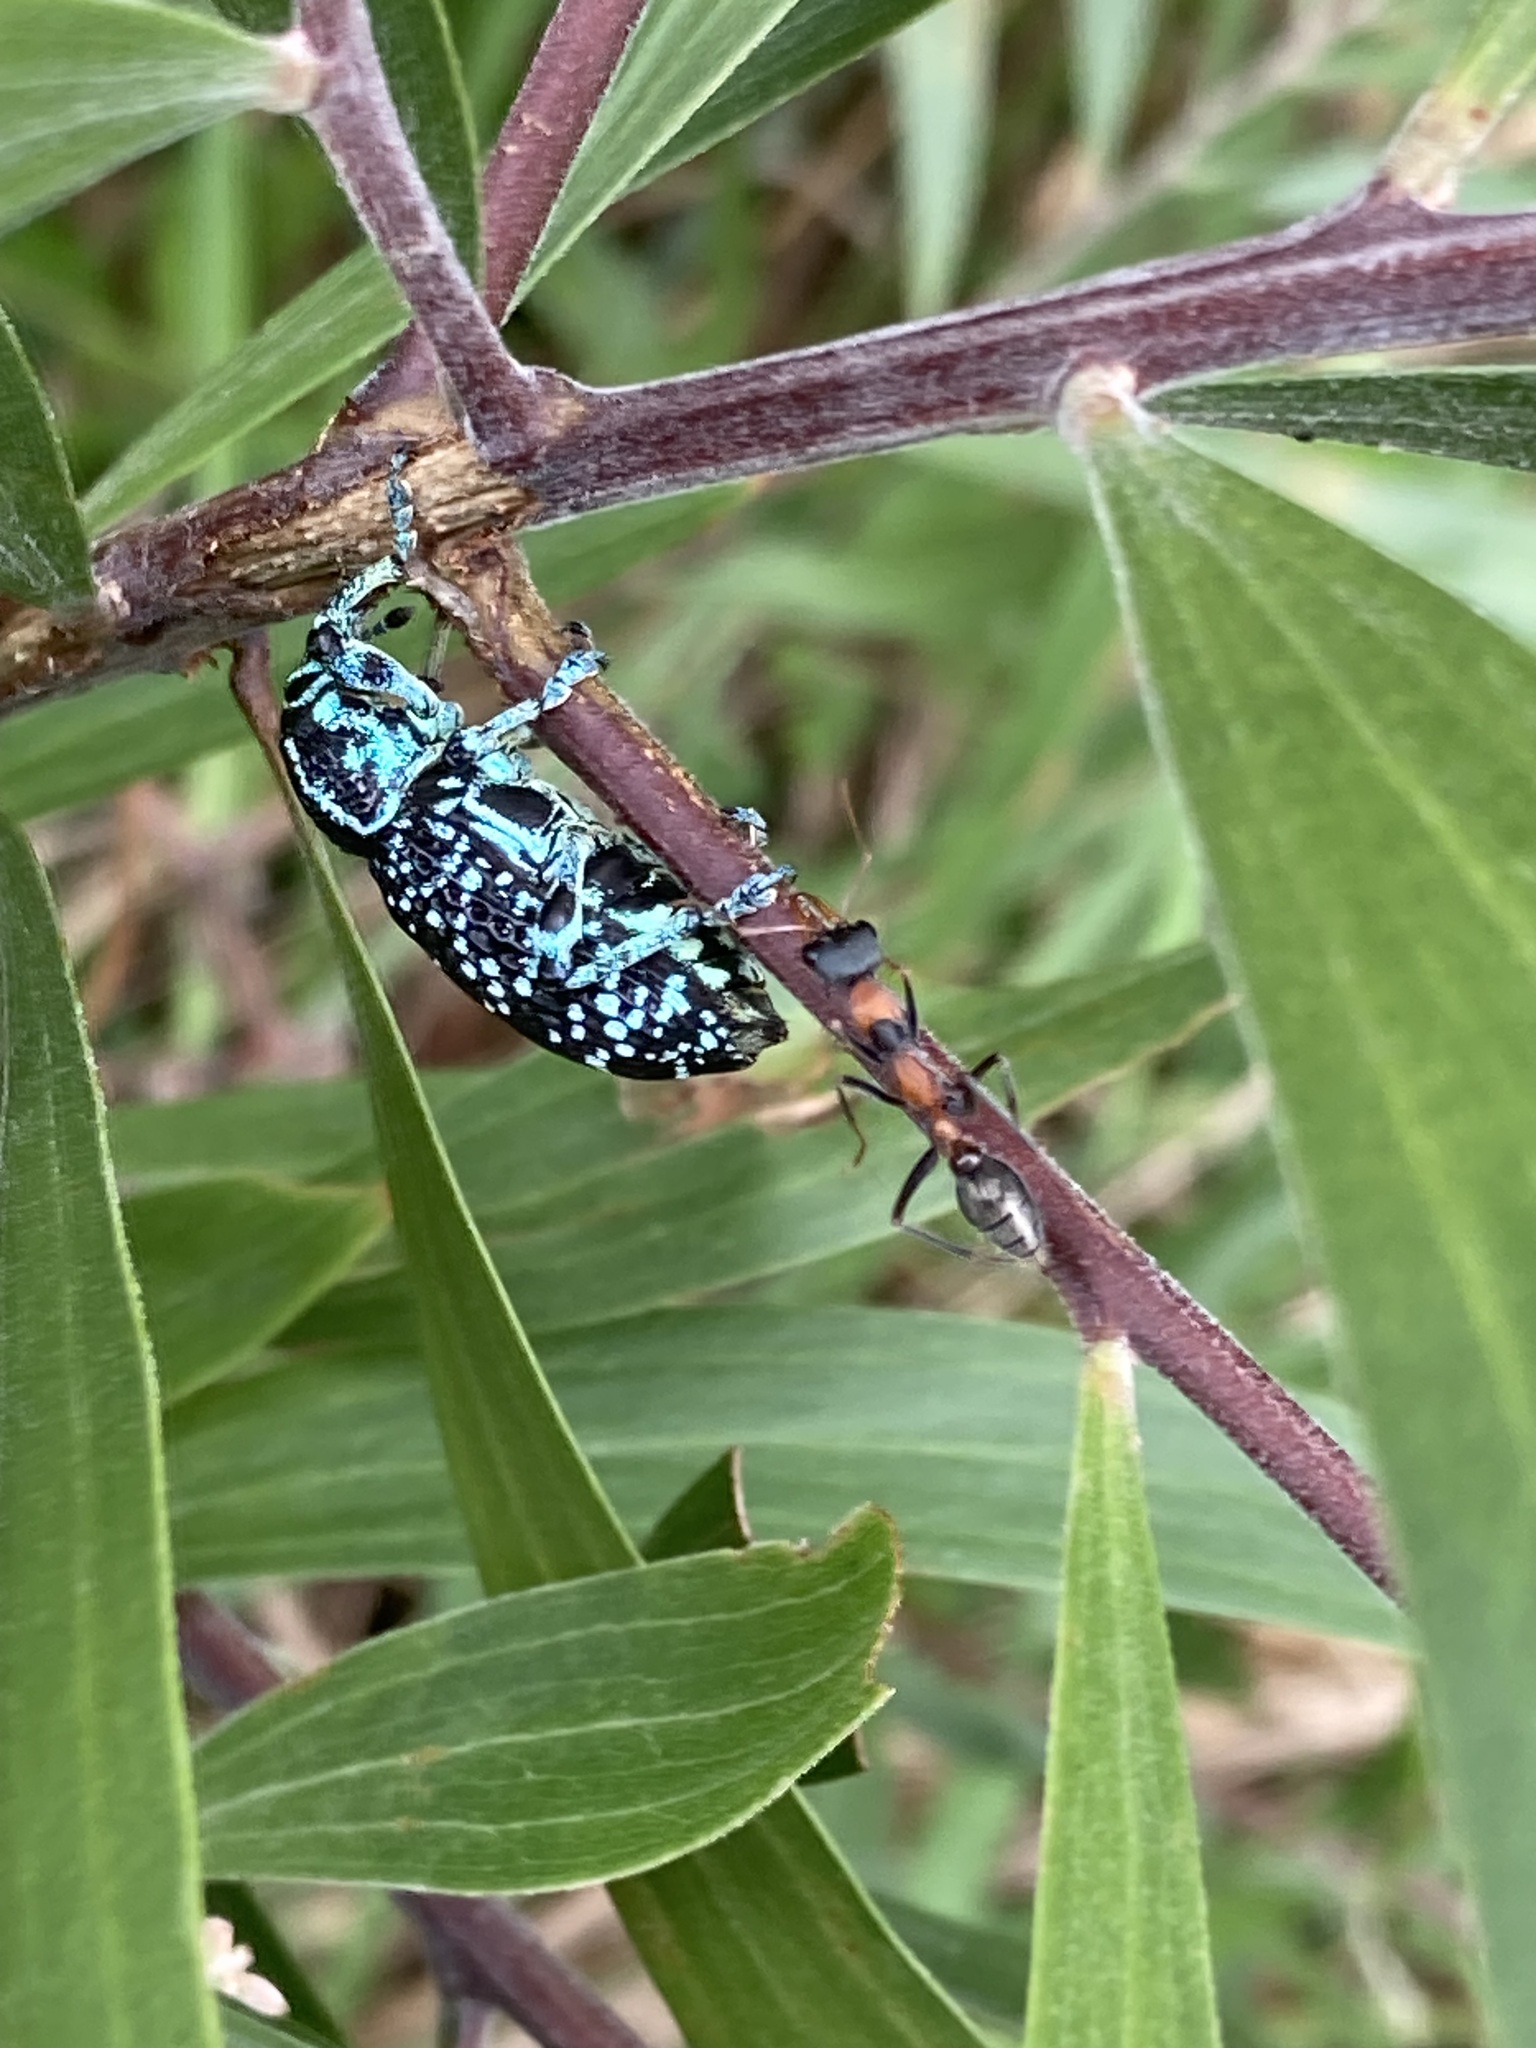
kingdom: Animalia
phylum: Arthropoda
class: Insecta
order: Hymenoptera
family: Formicidae
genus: Myrmecia
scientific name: Myrmecia nigrocincta
